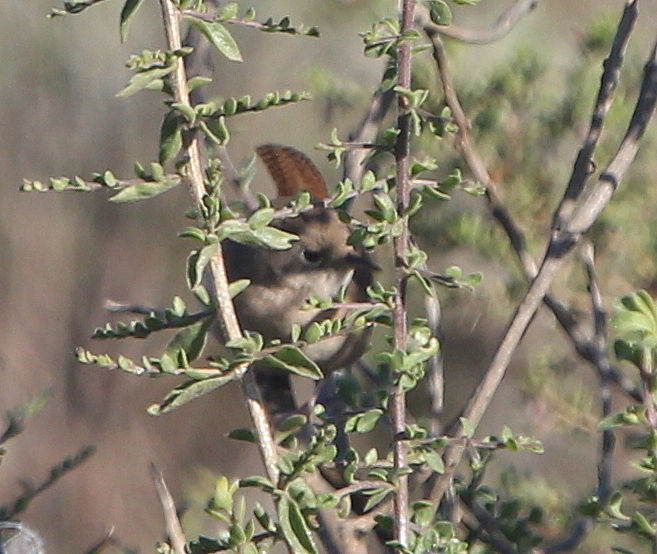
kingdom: Animalia
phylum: Chordata
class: Aves
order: Passeriformes
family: Troglodytidae
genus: Troglodytes
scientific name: Troglodytes aedon
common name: House wren
